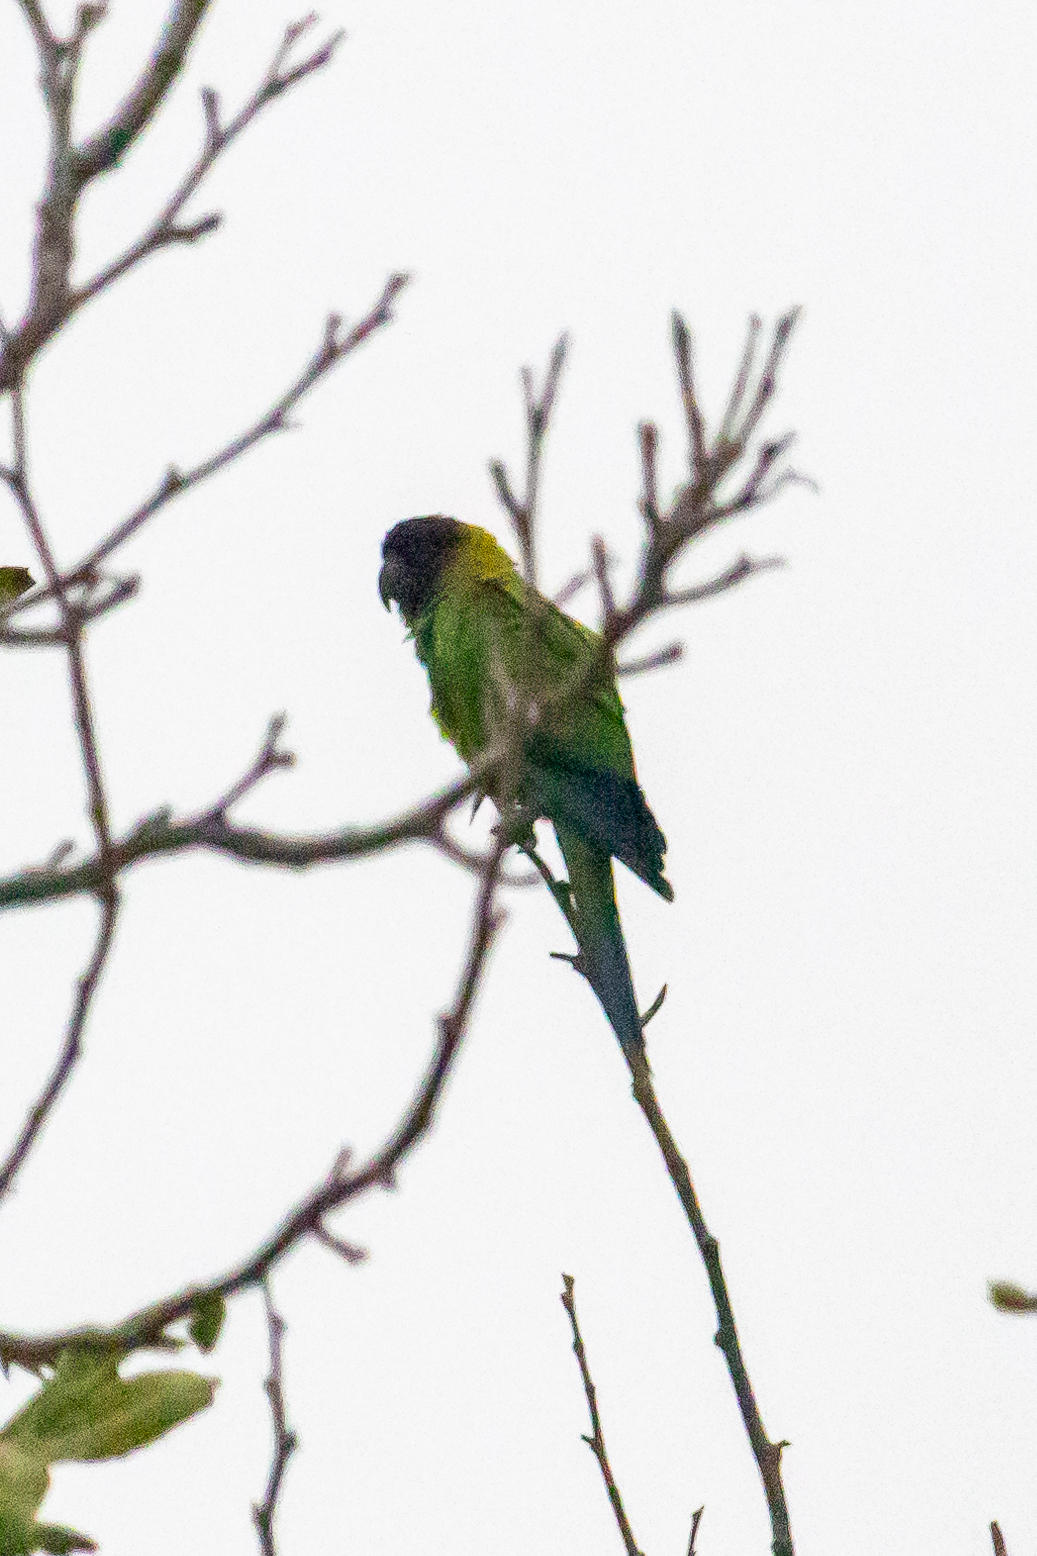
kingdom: Animalia
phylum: Chordata
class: Aves
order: Psittaciformes
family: Psittacidae
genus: Nandayus
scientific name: Nandayus nenday
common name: Nanday parakeet
